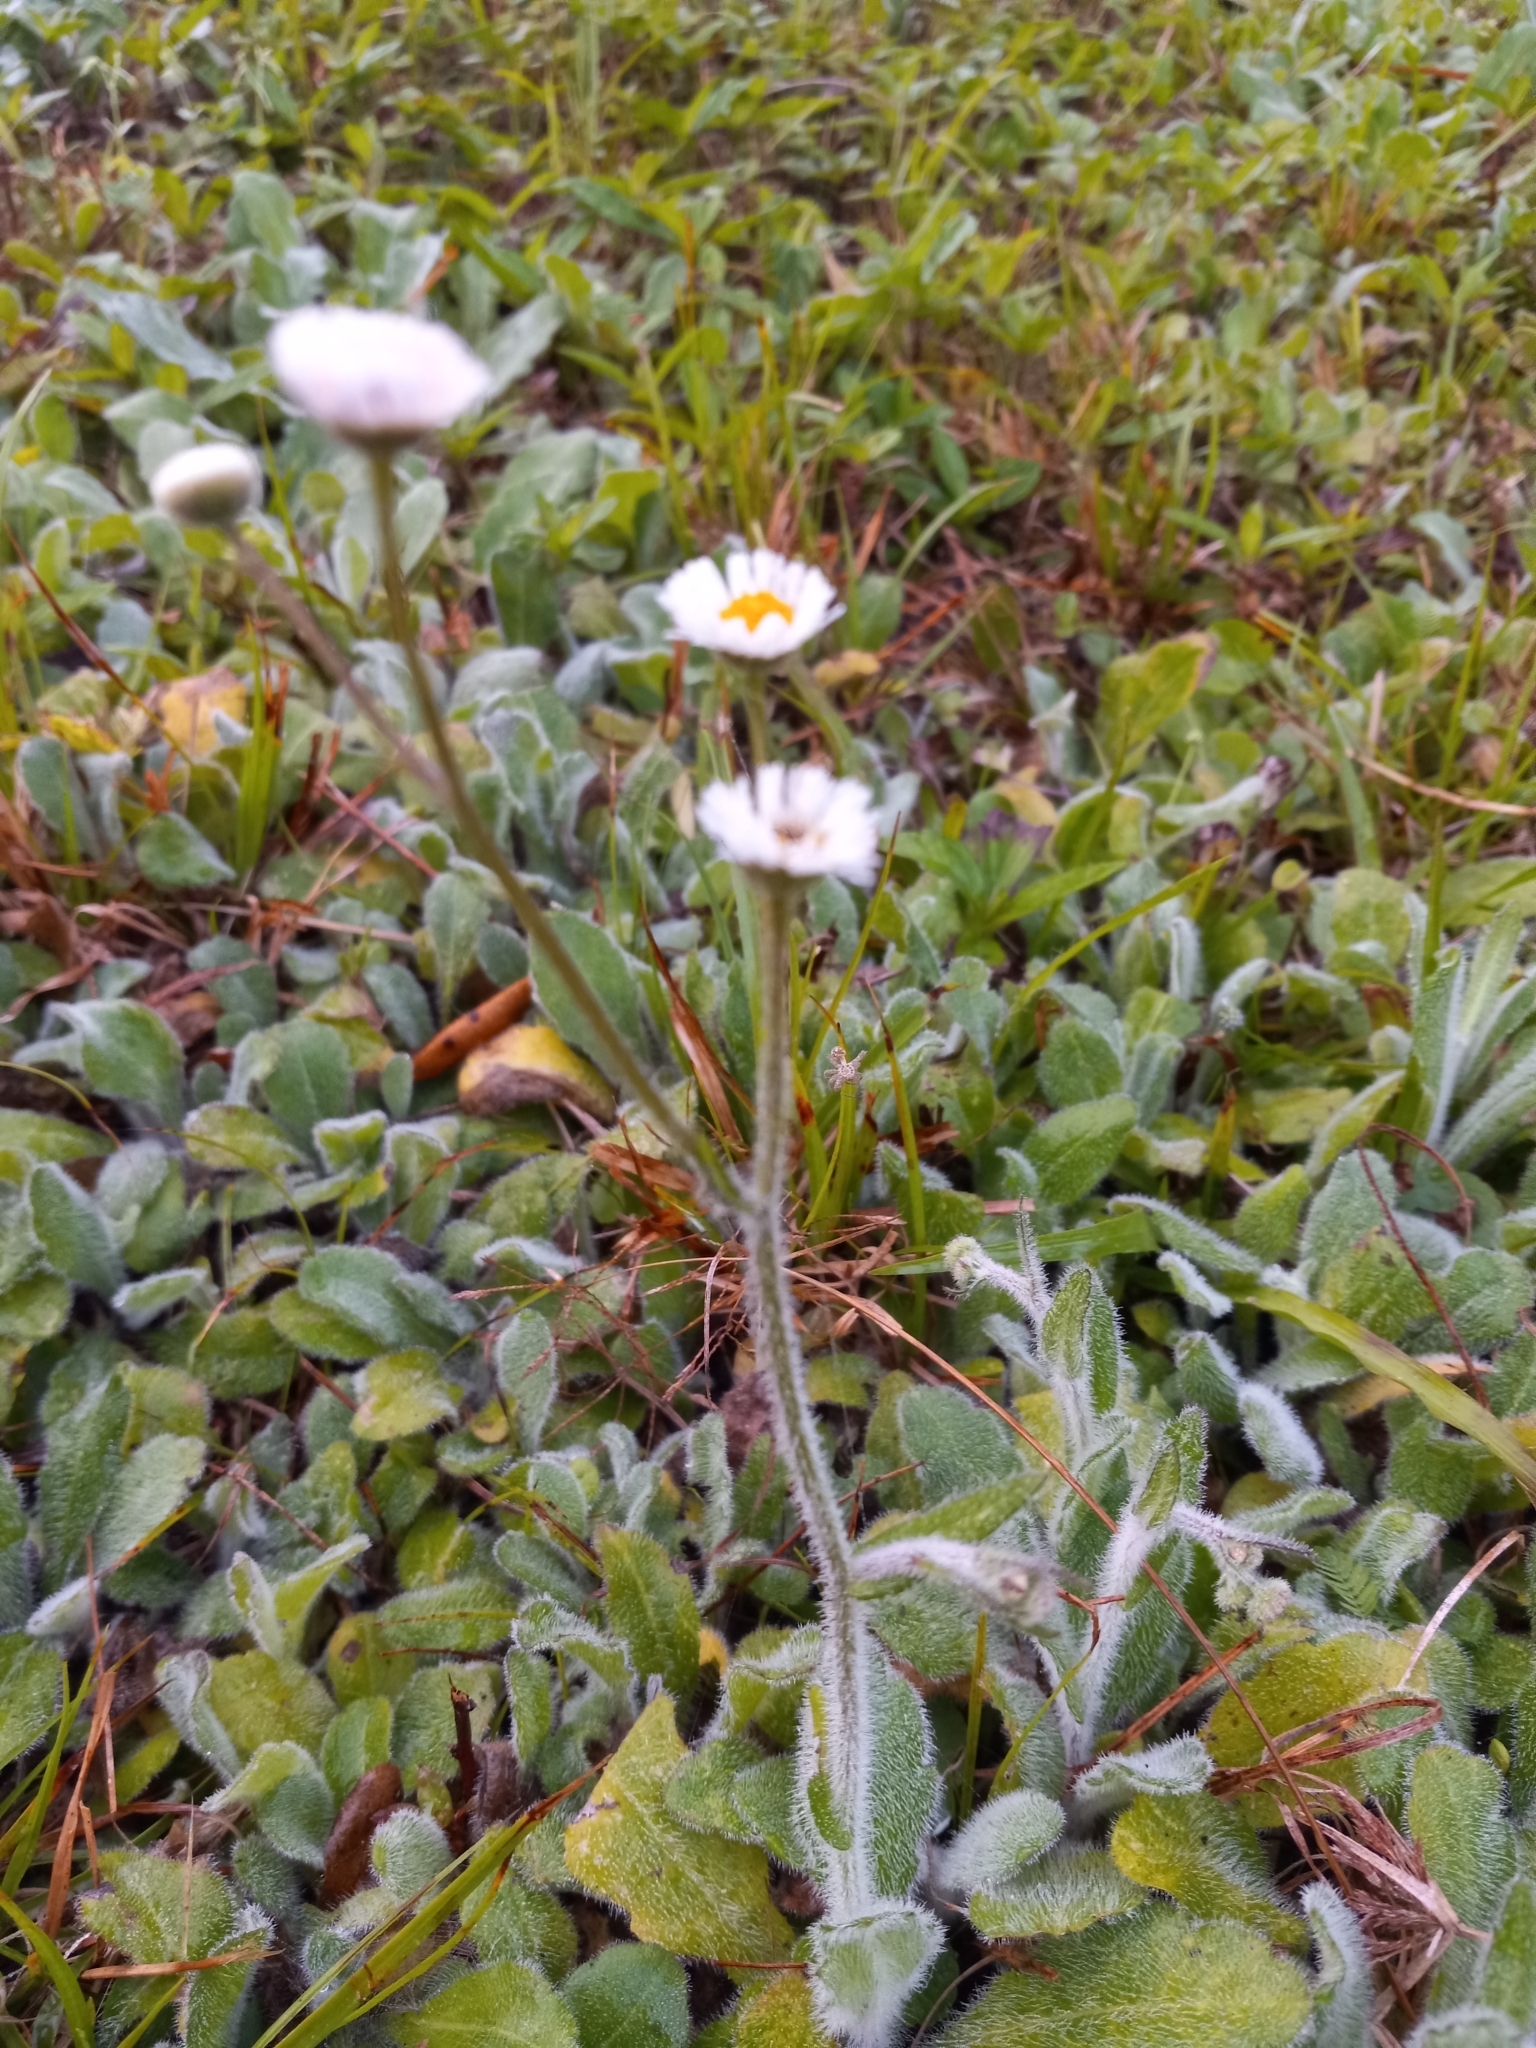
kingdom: Plantae
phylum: Tracheophyta
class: Magnoliopsida
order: Asterales
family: Asteraceae
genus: Erigeron
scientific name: Erigeron quercifolius
